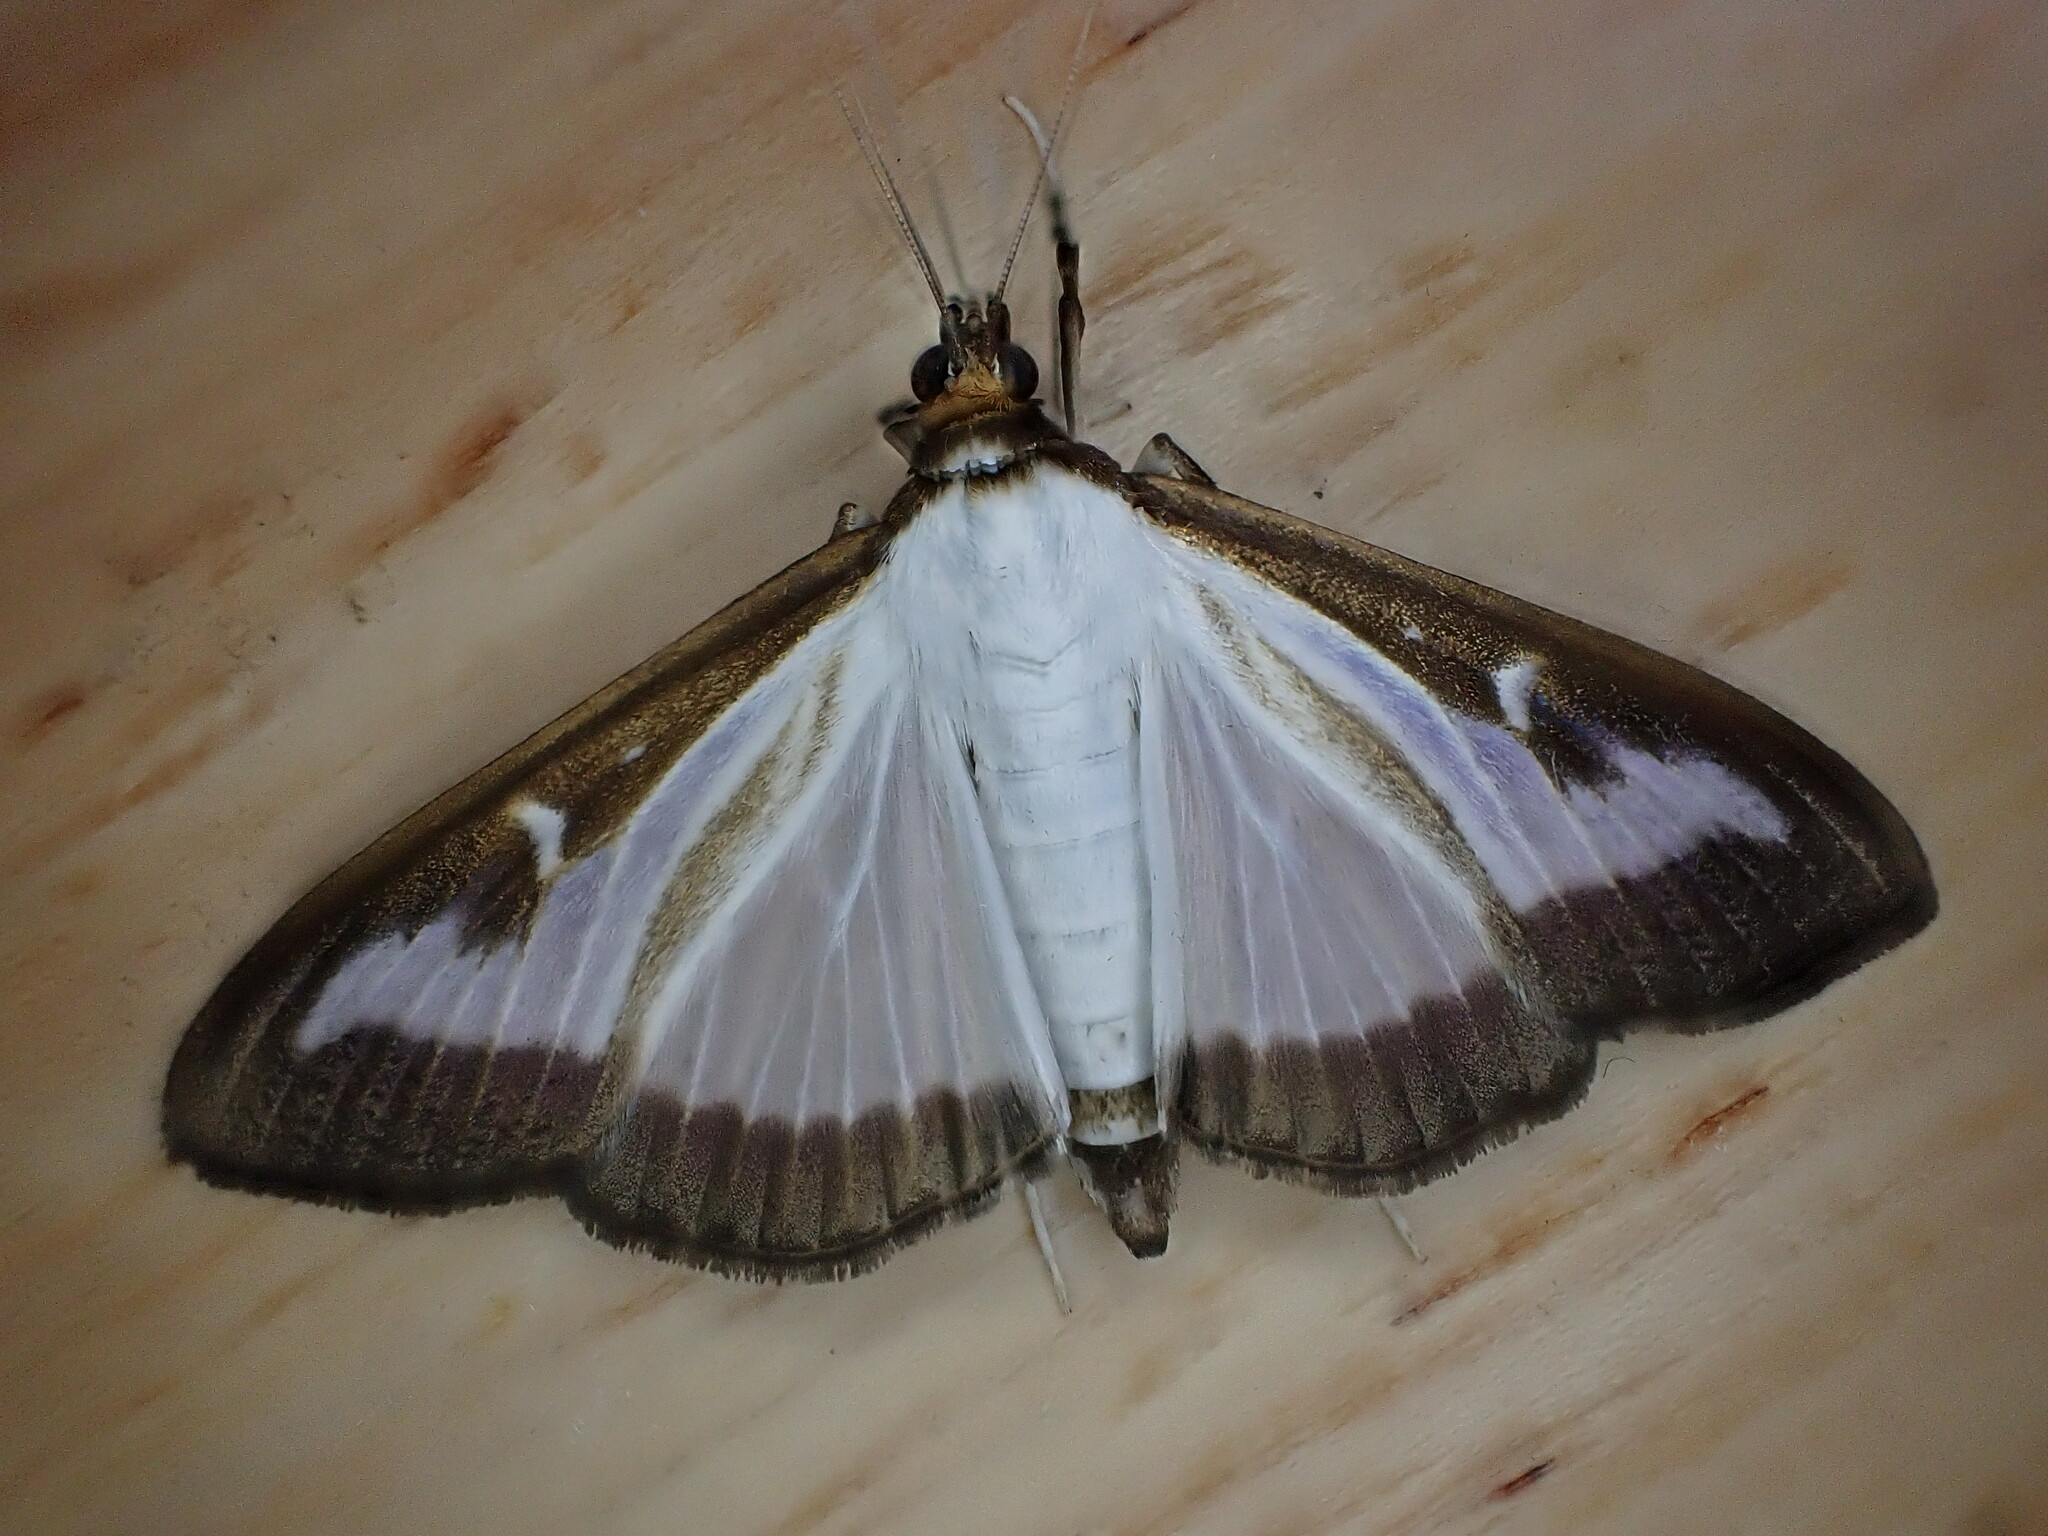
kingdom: Animalia
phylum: Arthropoda
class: Insecta
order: Lepidoptera
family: Crambidae
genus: Cydalima
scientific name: Cydalima perspectalis
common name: Box tree moth
